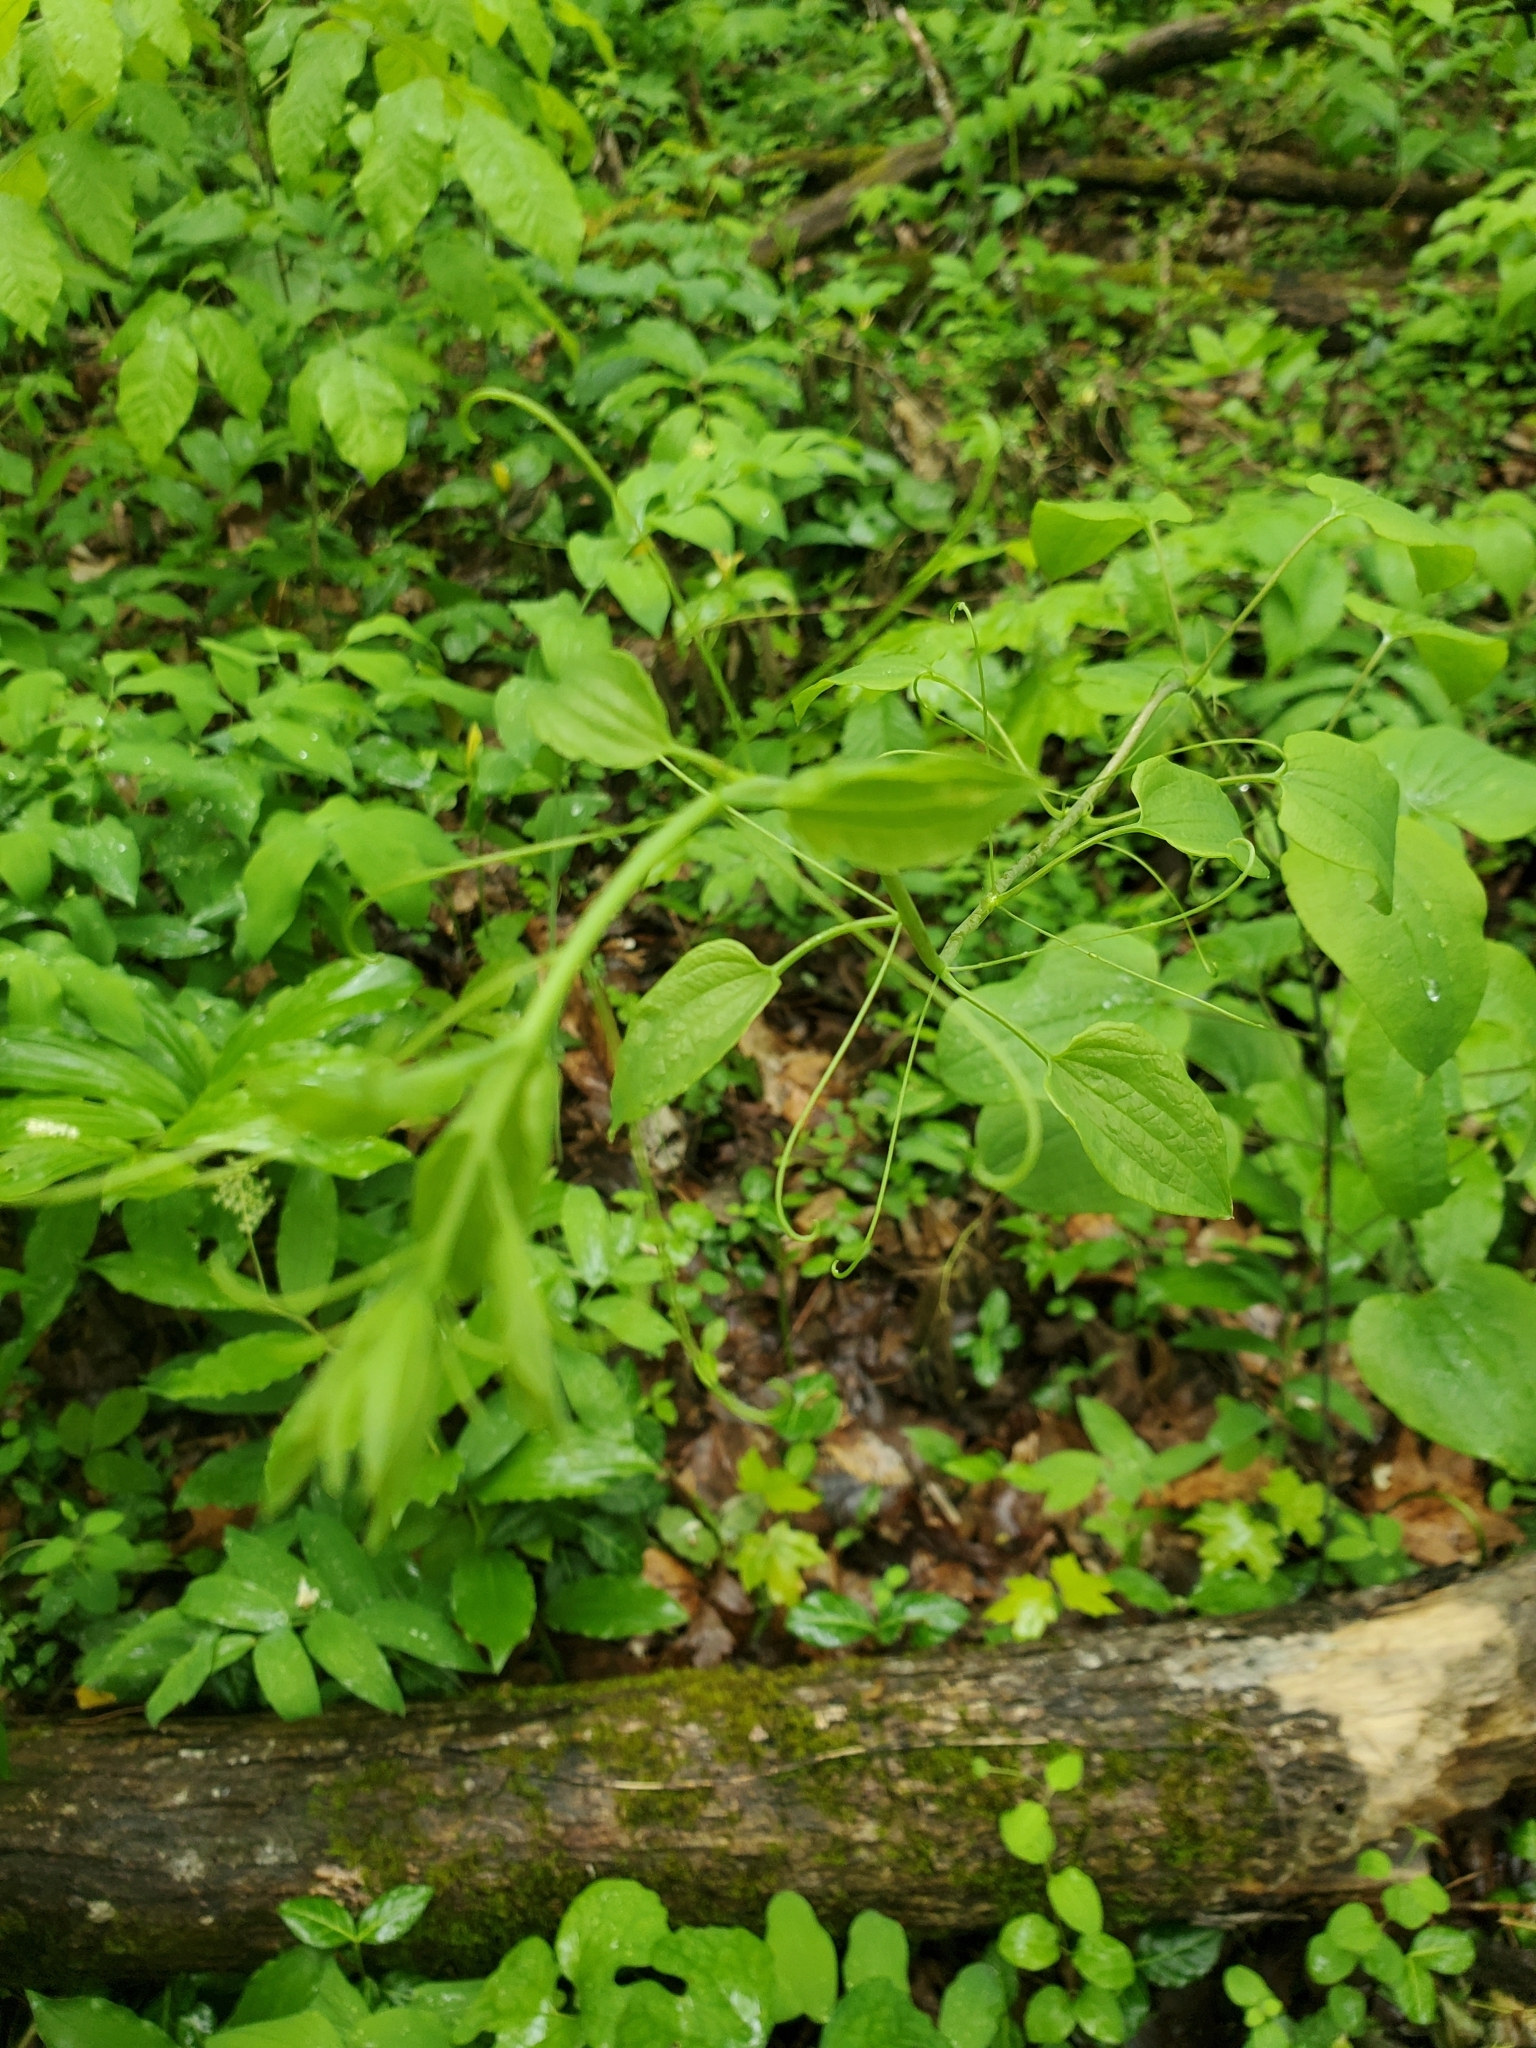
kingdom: Plantae
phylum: Tracheophyta
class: Liliopsida
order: Dioscoreales
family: Dioscoreaceae
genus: Dioscorea
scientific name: Dioscorea villosa
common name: Wild yam
